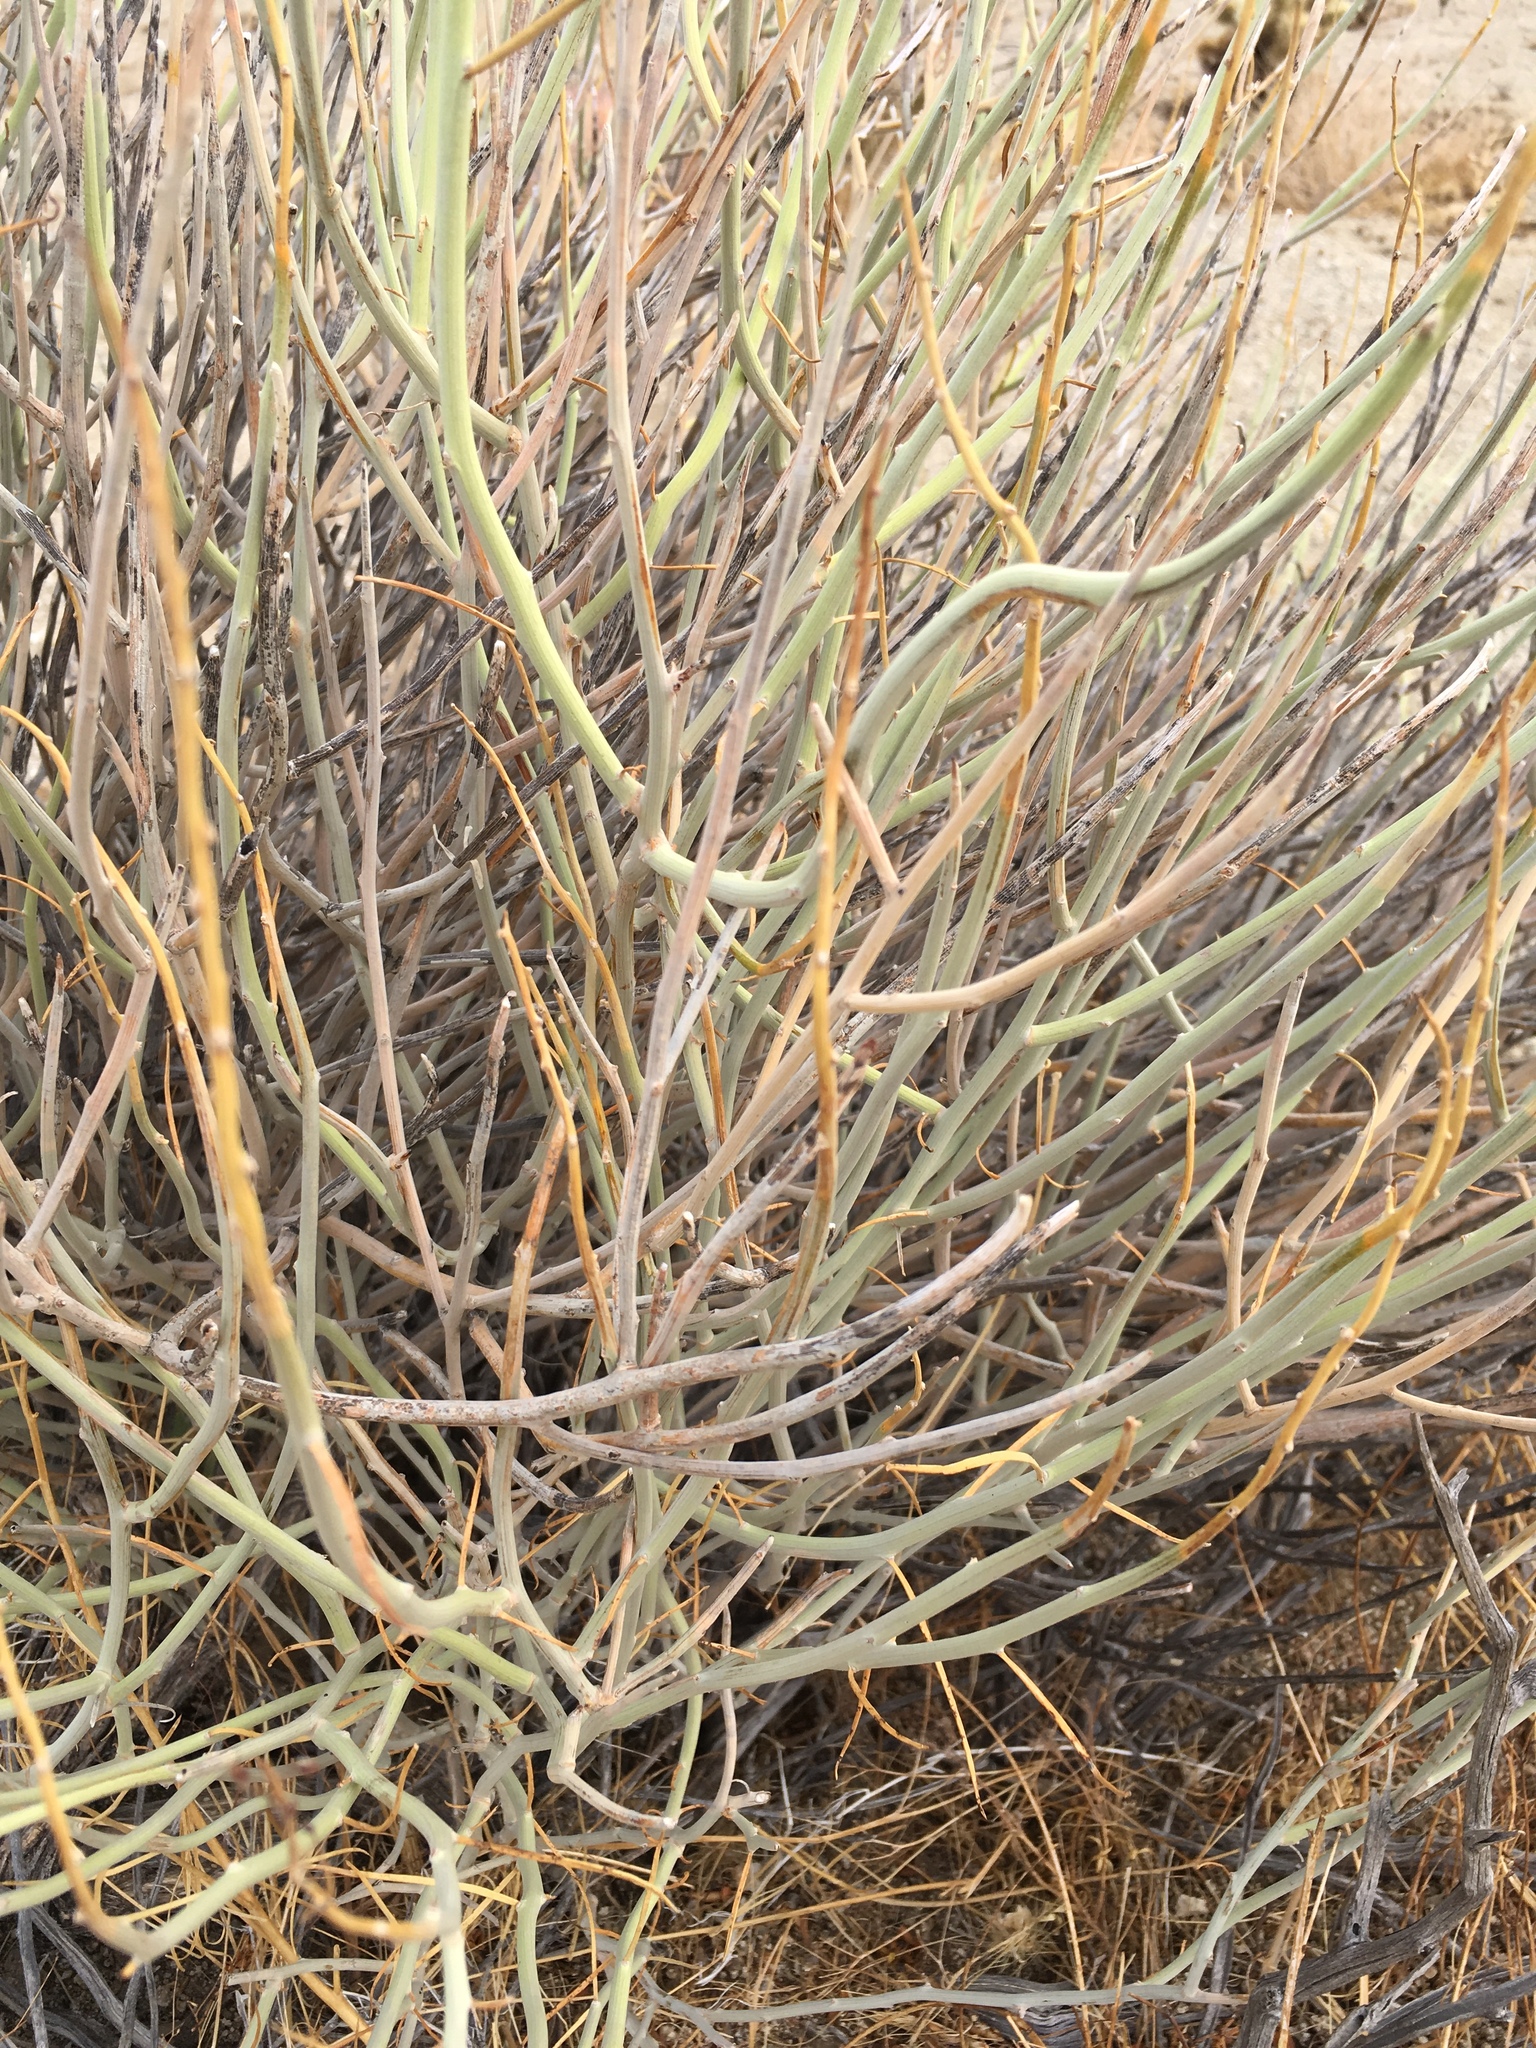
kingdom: Plantae
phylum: Tracheophyta
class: Magnoliopsida
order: Fabales
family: Fabaceae
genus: Senna
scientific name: Senna armata
